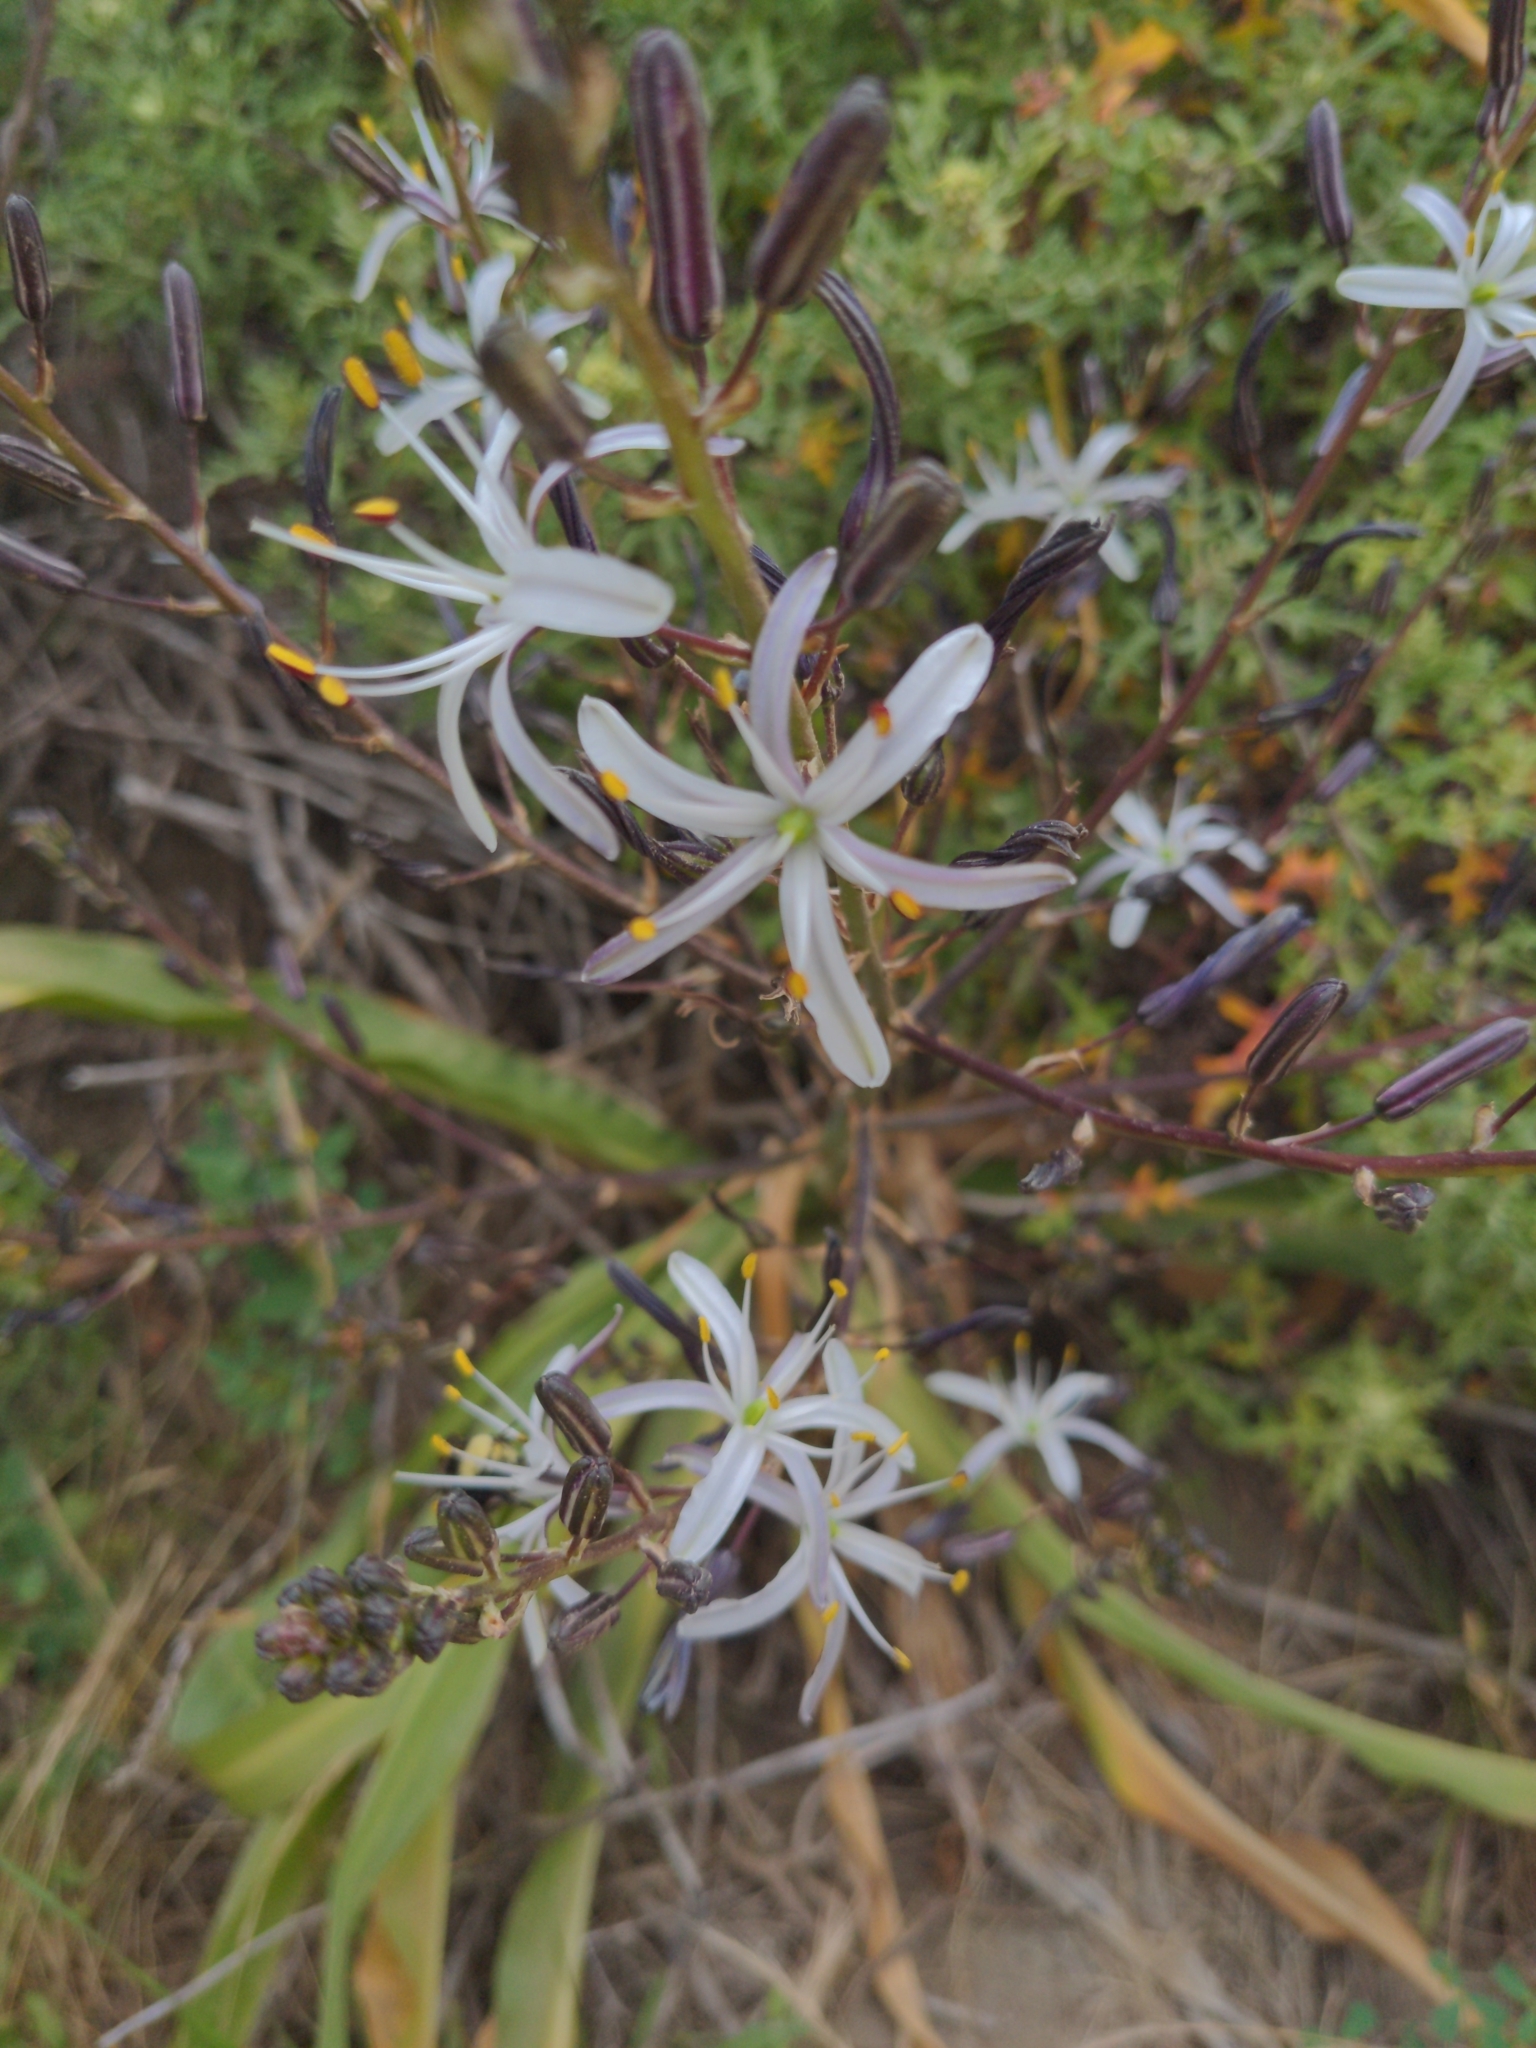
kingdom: Plantae
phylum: Tracheophyta
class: Liliopsida
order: Asparagales
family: Asparagaceae
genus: Chlorogalum
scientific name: Chlorogalum pomeridianum
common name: Amole
